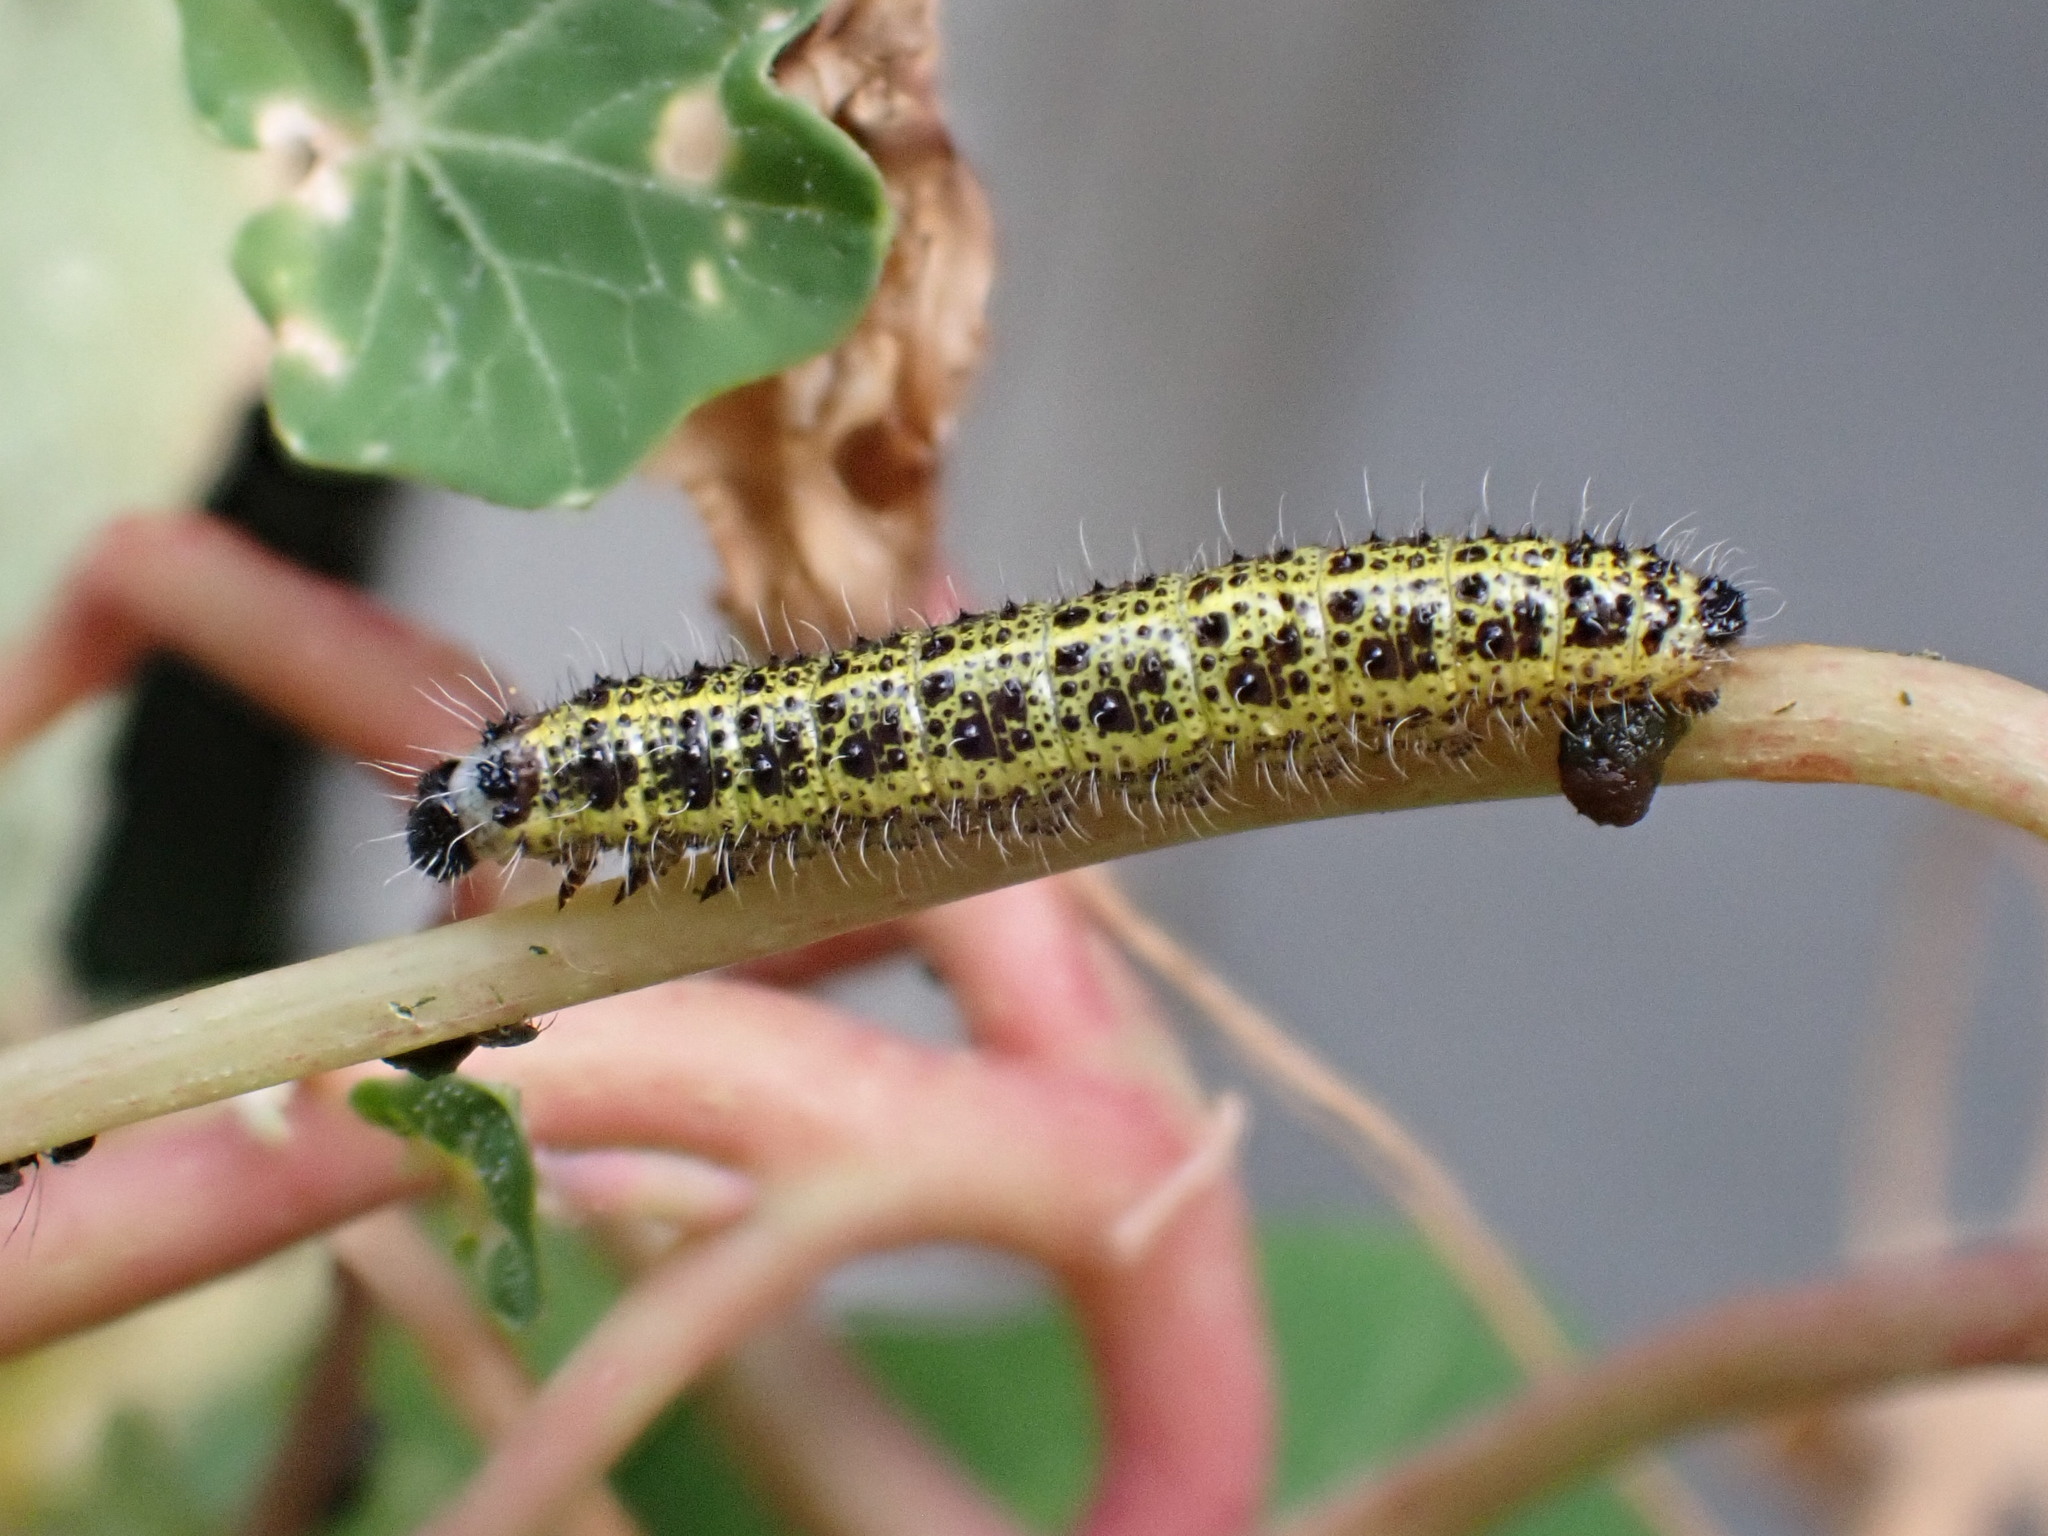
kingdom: Animalia
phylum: Arthropoda
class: Insecta
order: Lepidoptera
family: Pieridae
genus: Pieris
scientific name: Pieris brassicae
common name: Large white
